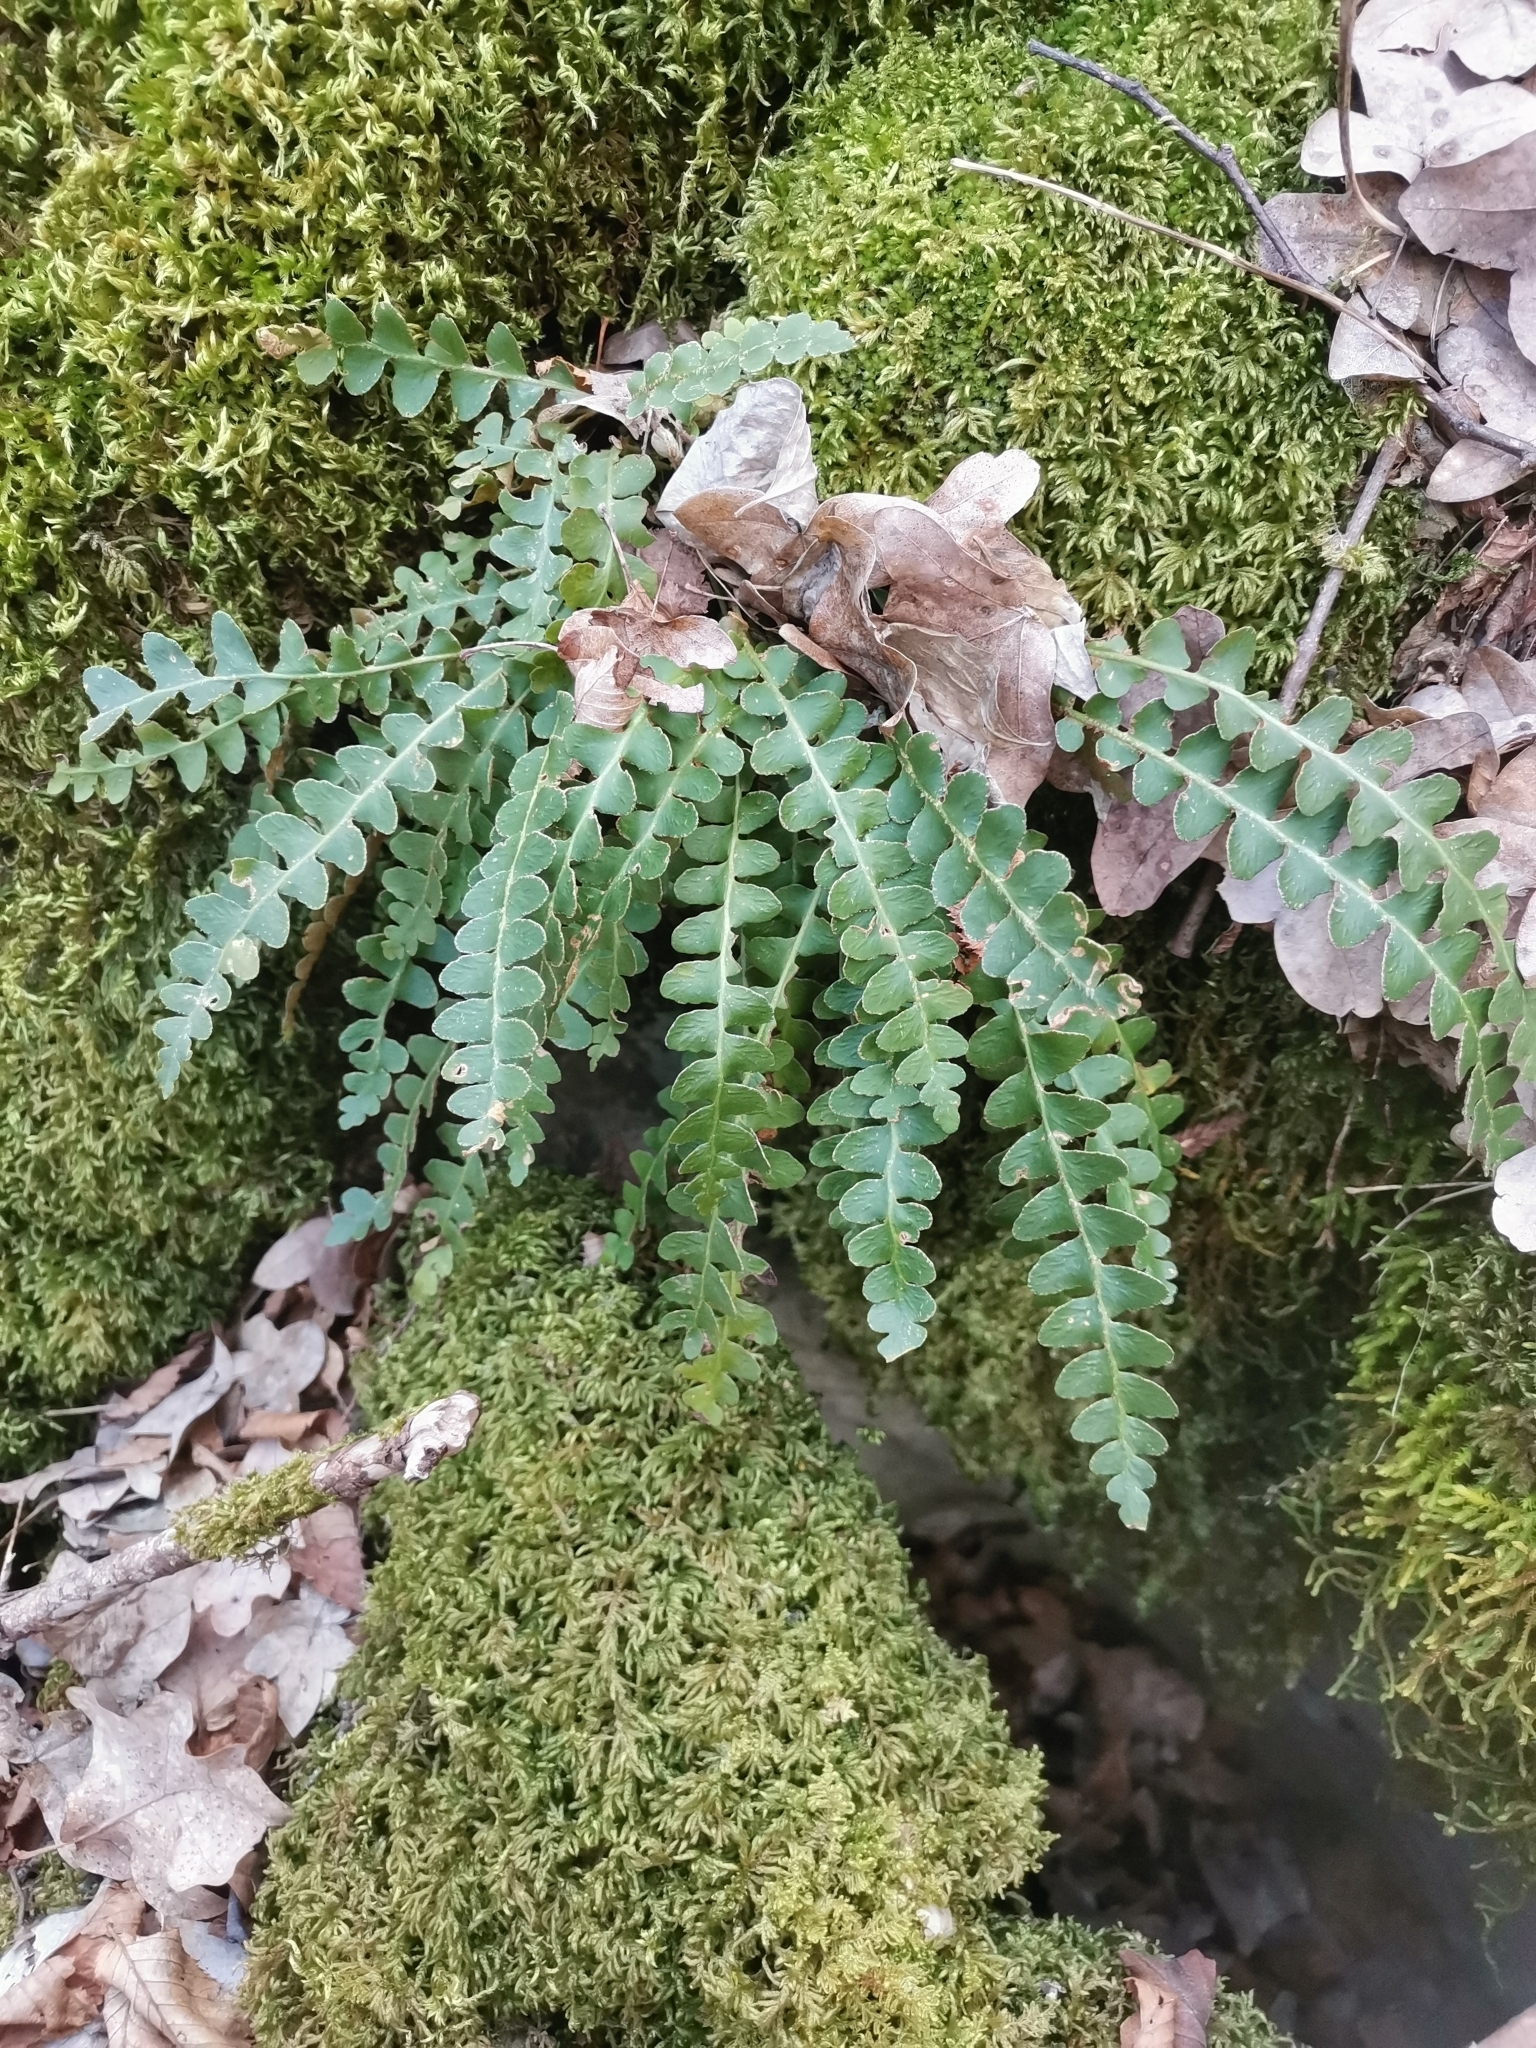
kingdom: Plantae
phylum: Tracheophyta
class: Polypodiopsida
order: Polypodiales
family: Aspleniaceae
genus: Asplenium
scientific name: Asplenium ceterach
